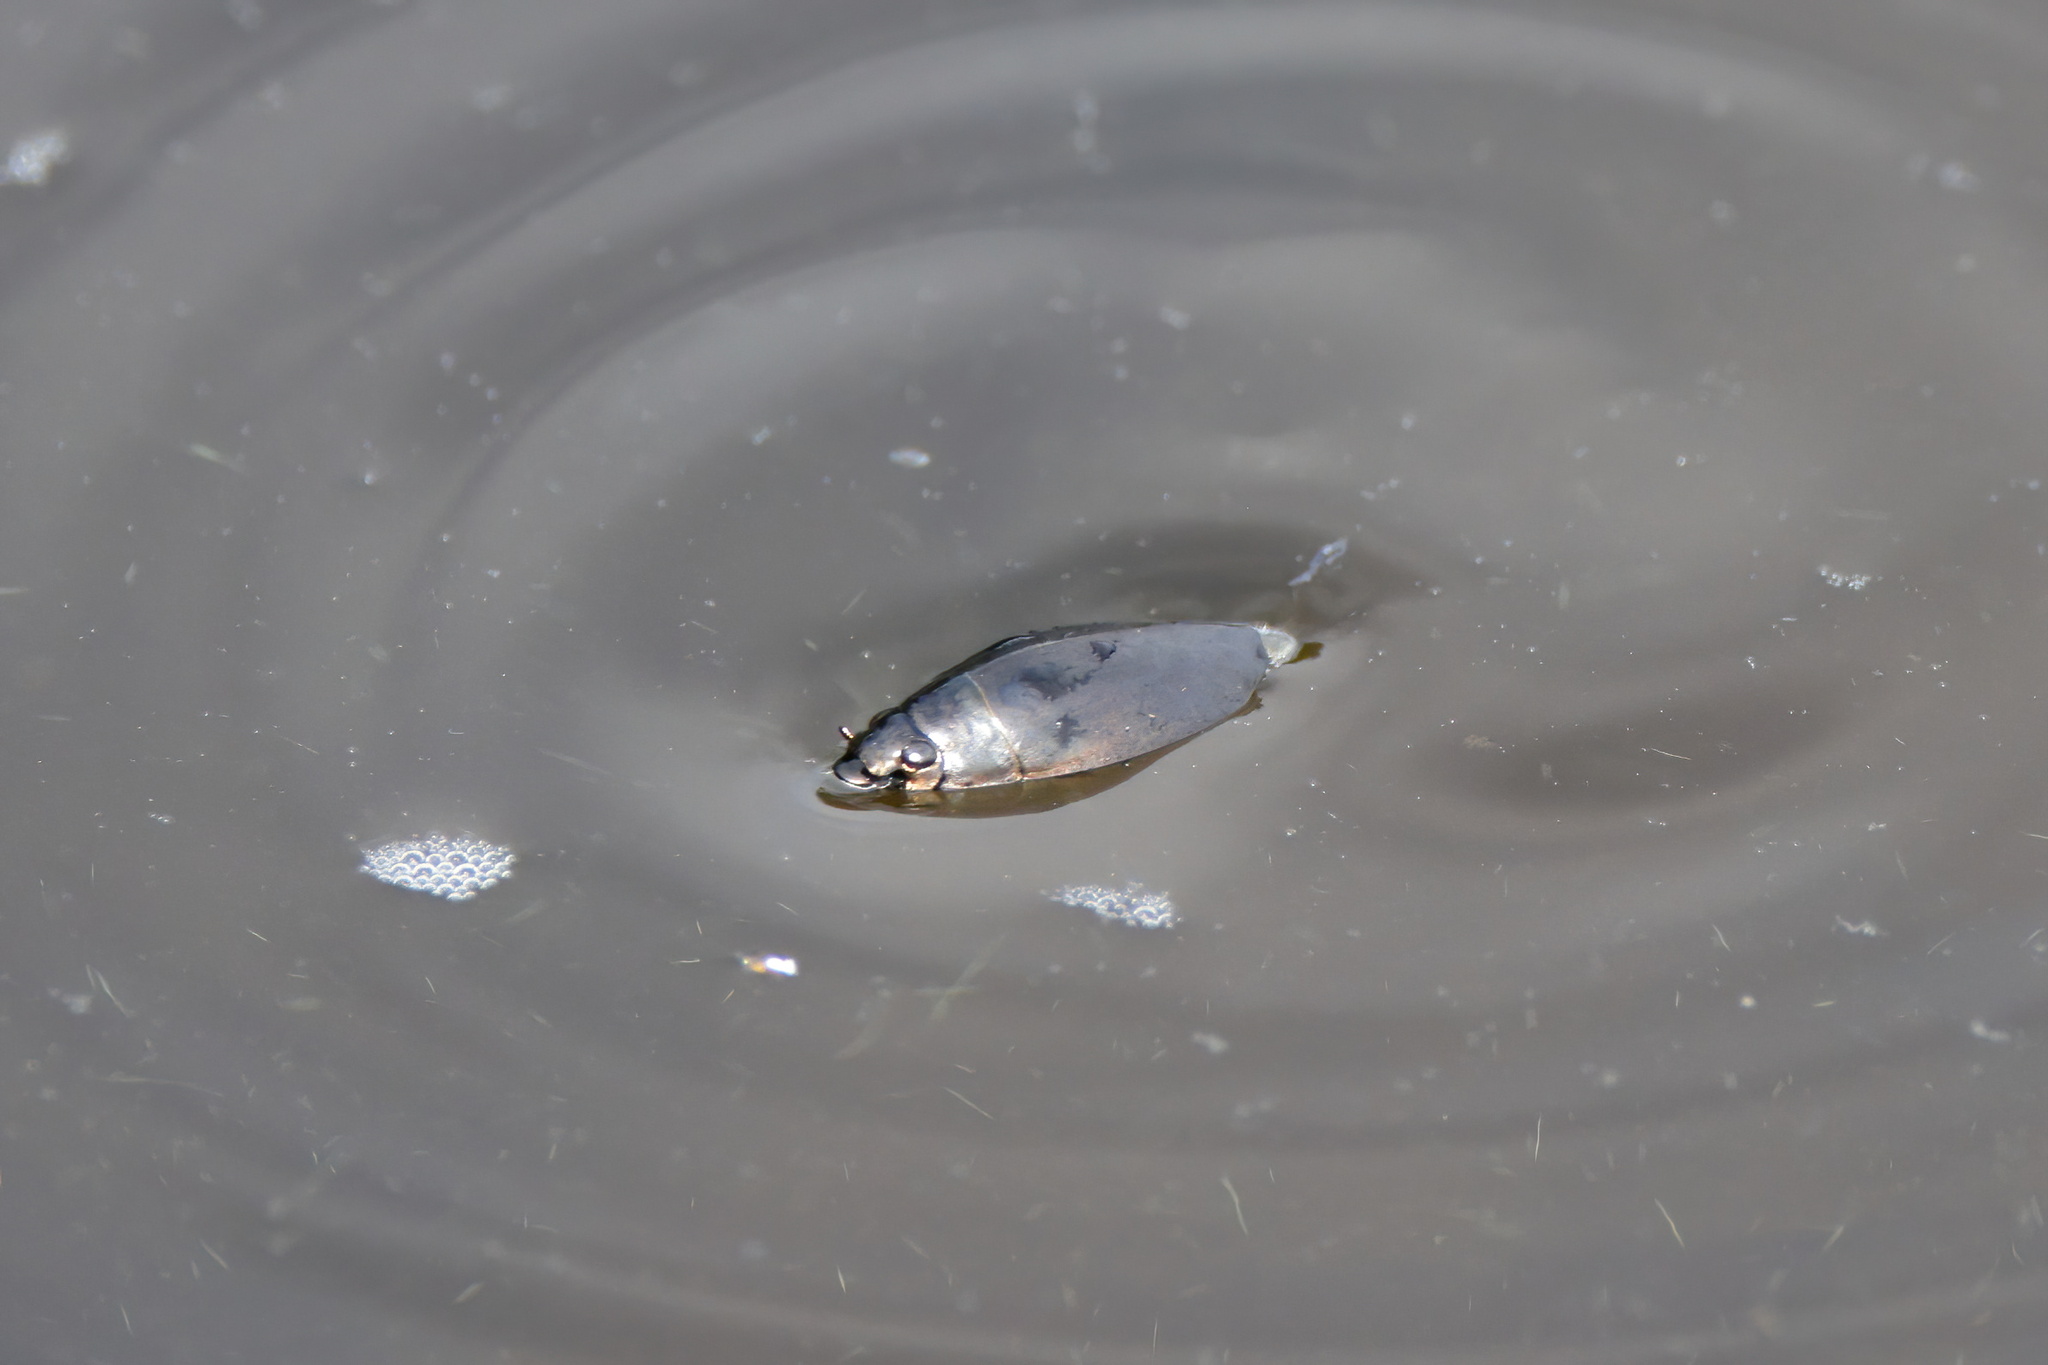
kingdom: Animalia
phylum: Arthropoda
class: Insecta
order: Coleoptera
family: Gyrinidae
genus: Dineutus
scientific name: Dineutus
